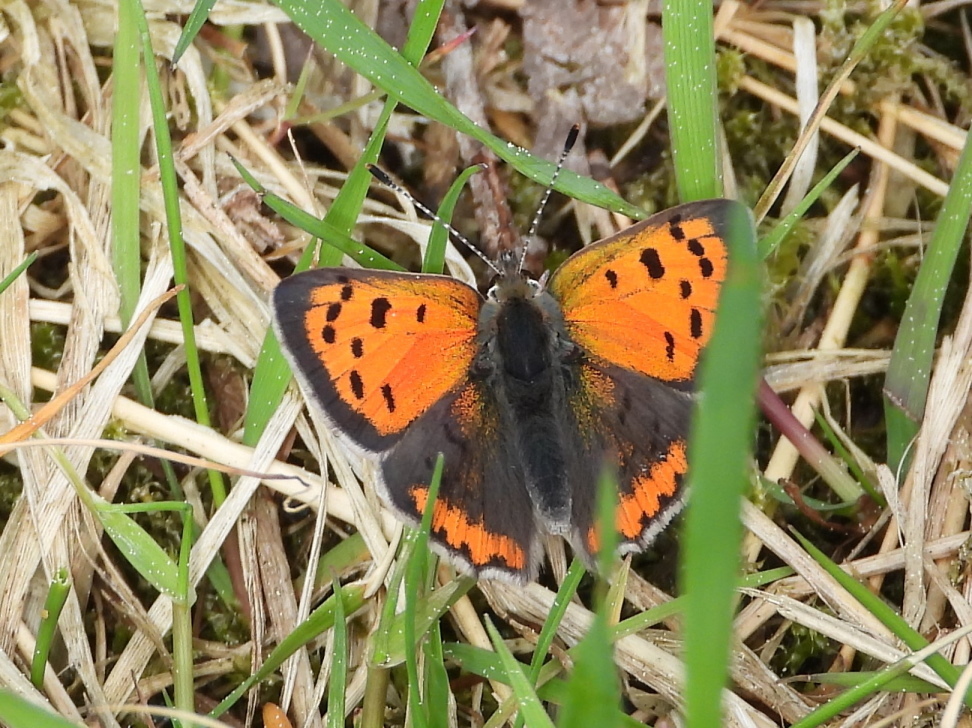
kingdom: Animalia
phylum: Arthropoda
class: Insecta
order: Lepidoptera
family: Lycaenidae
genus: Lycaena
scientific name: Lycaena phlaeas
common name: Small copper
